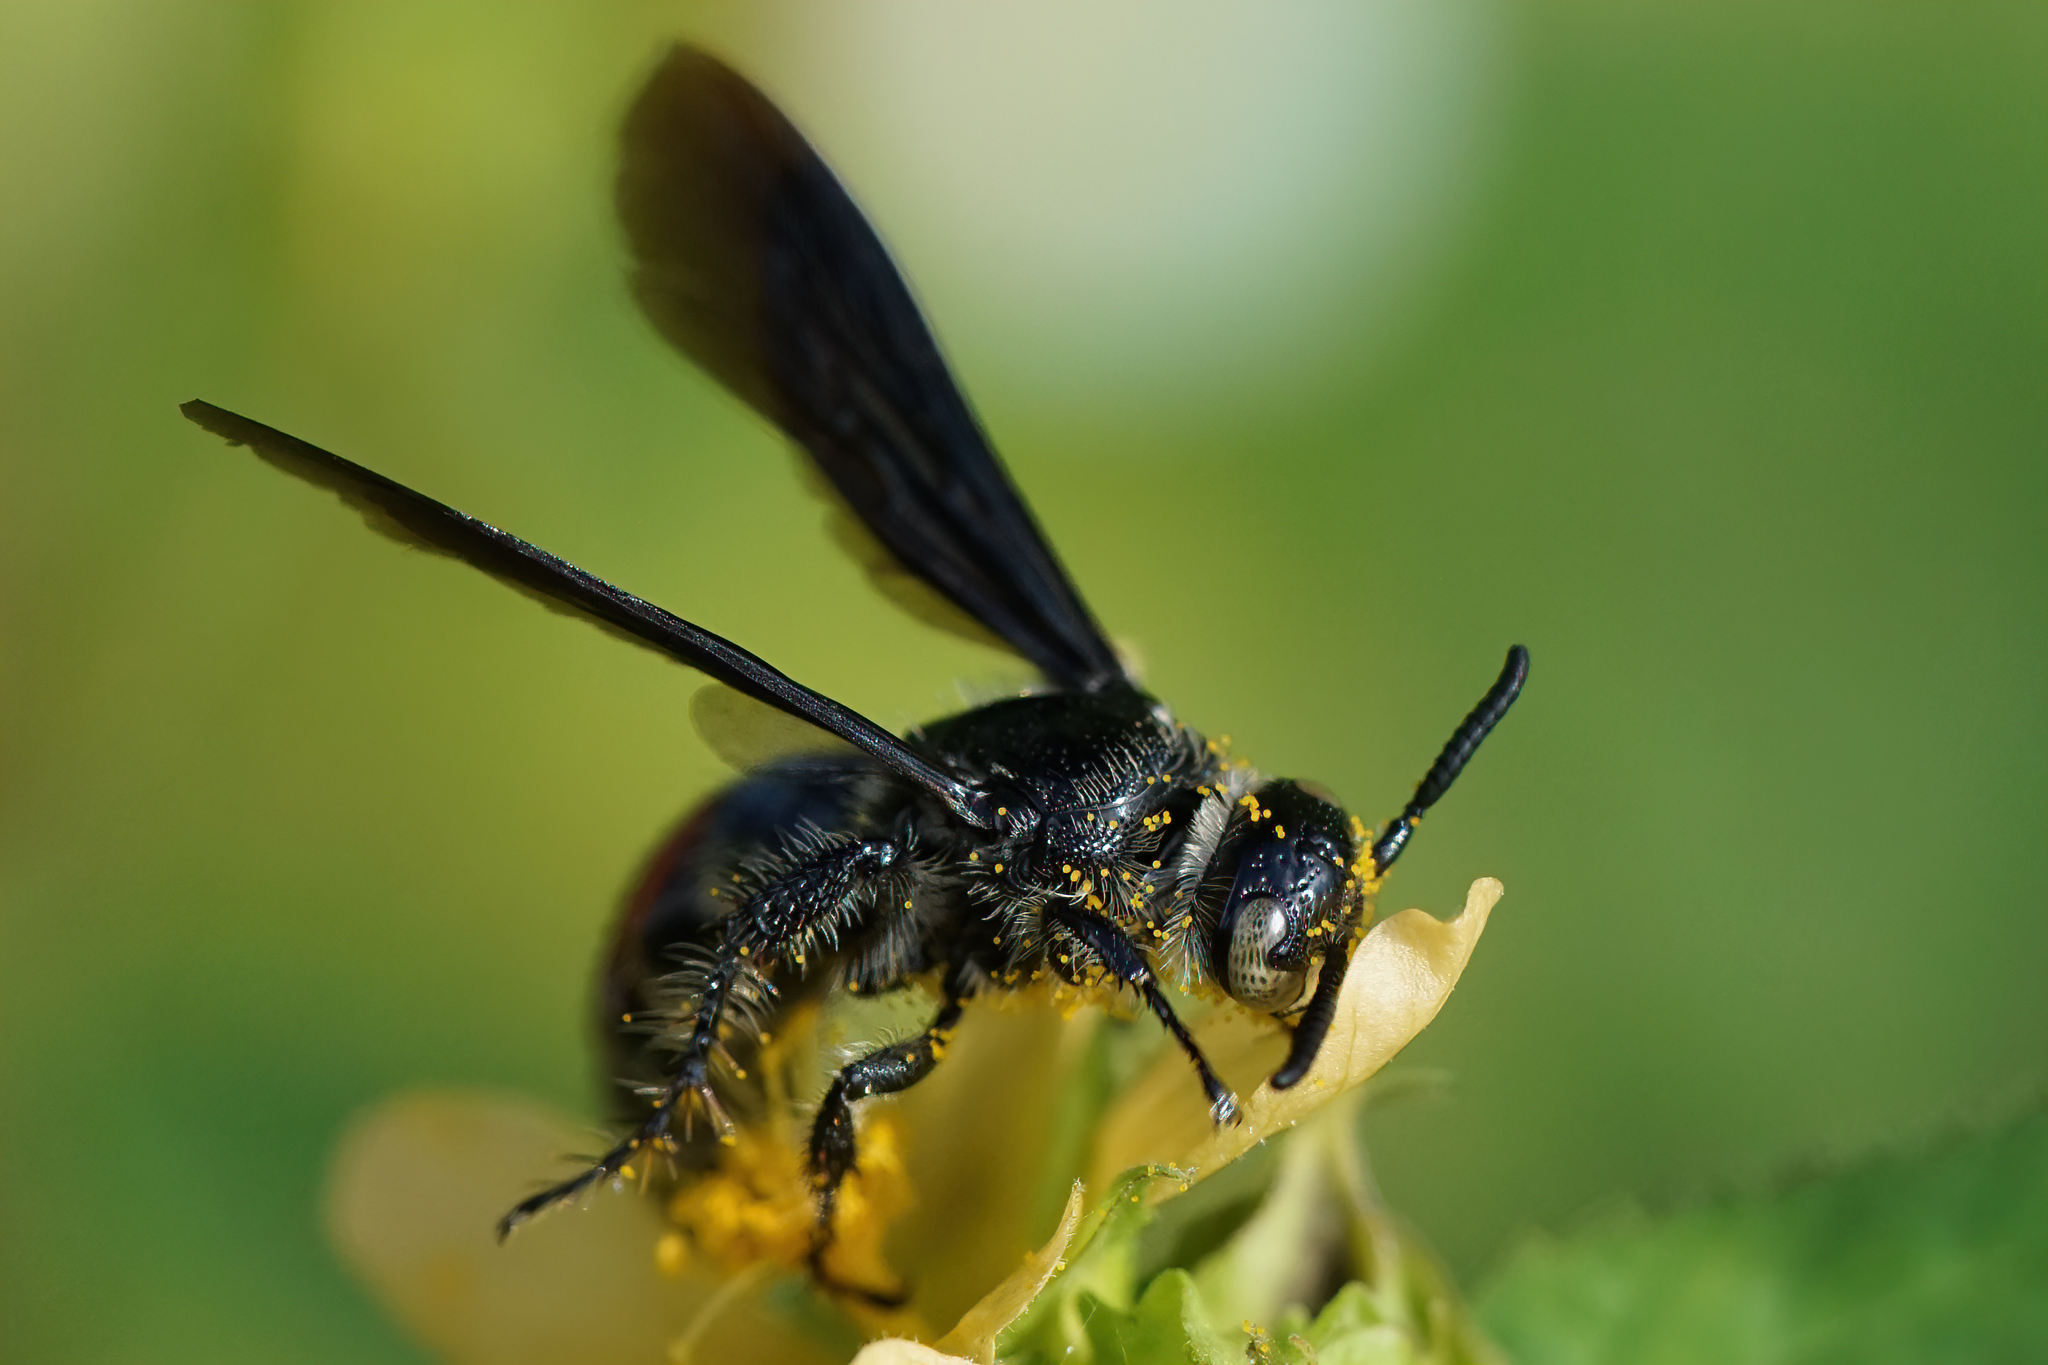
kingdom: Animalia
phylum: Arthropoda
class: Insecta
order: Hymenoptera
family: Scoliidae
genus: Dielis
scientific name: Dielis dorsata
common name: Scoliid wasp
